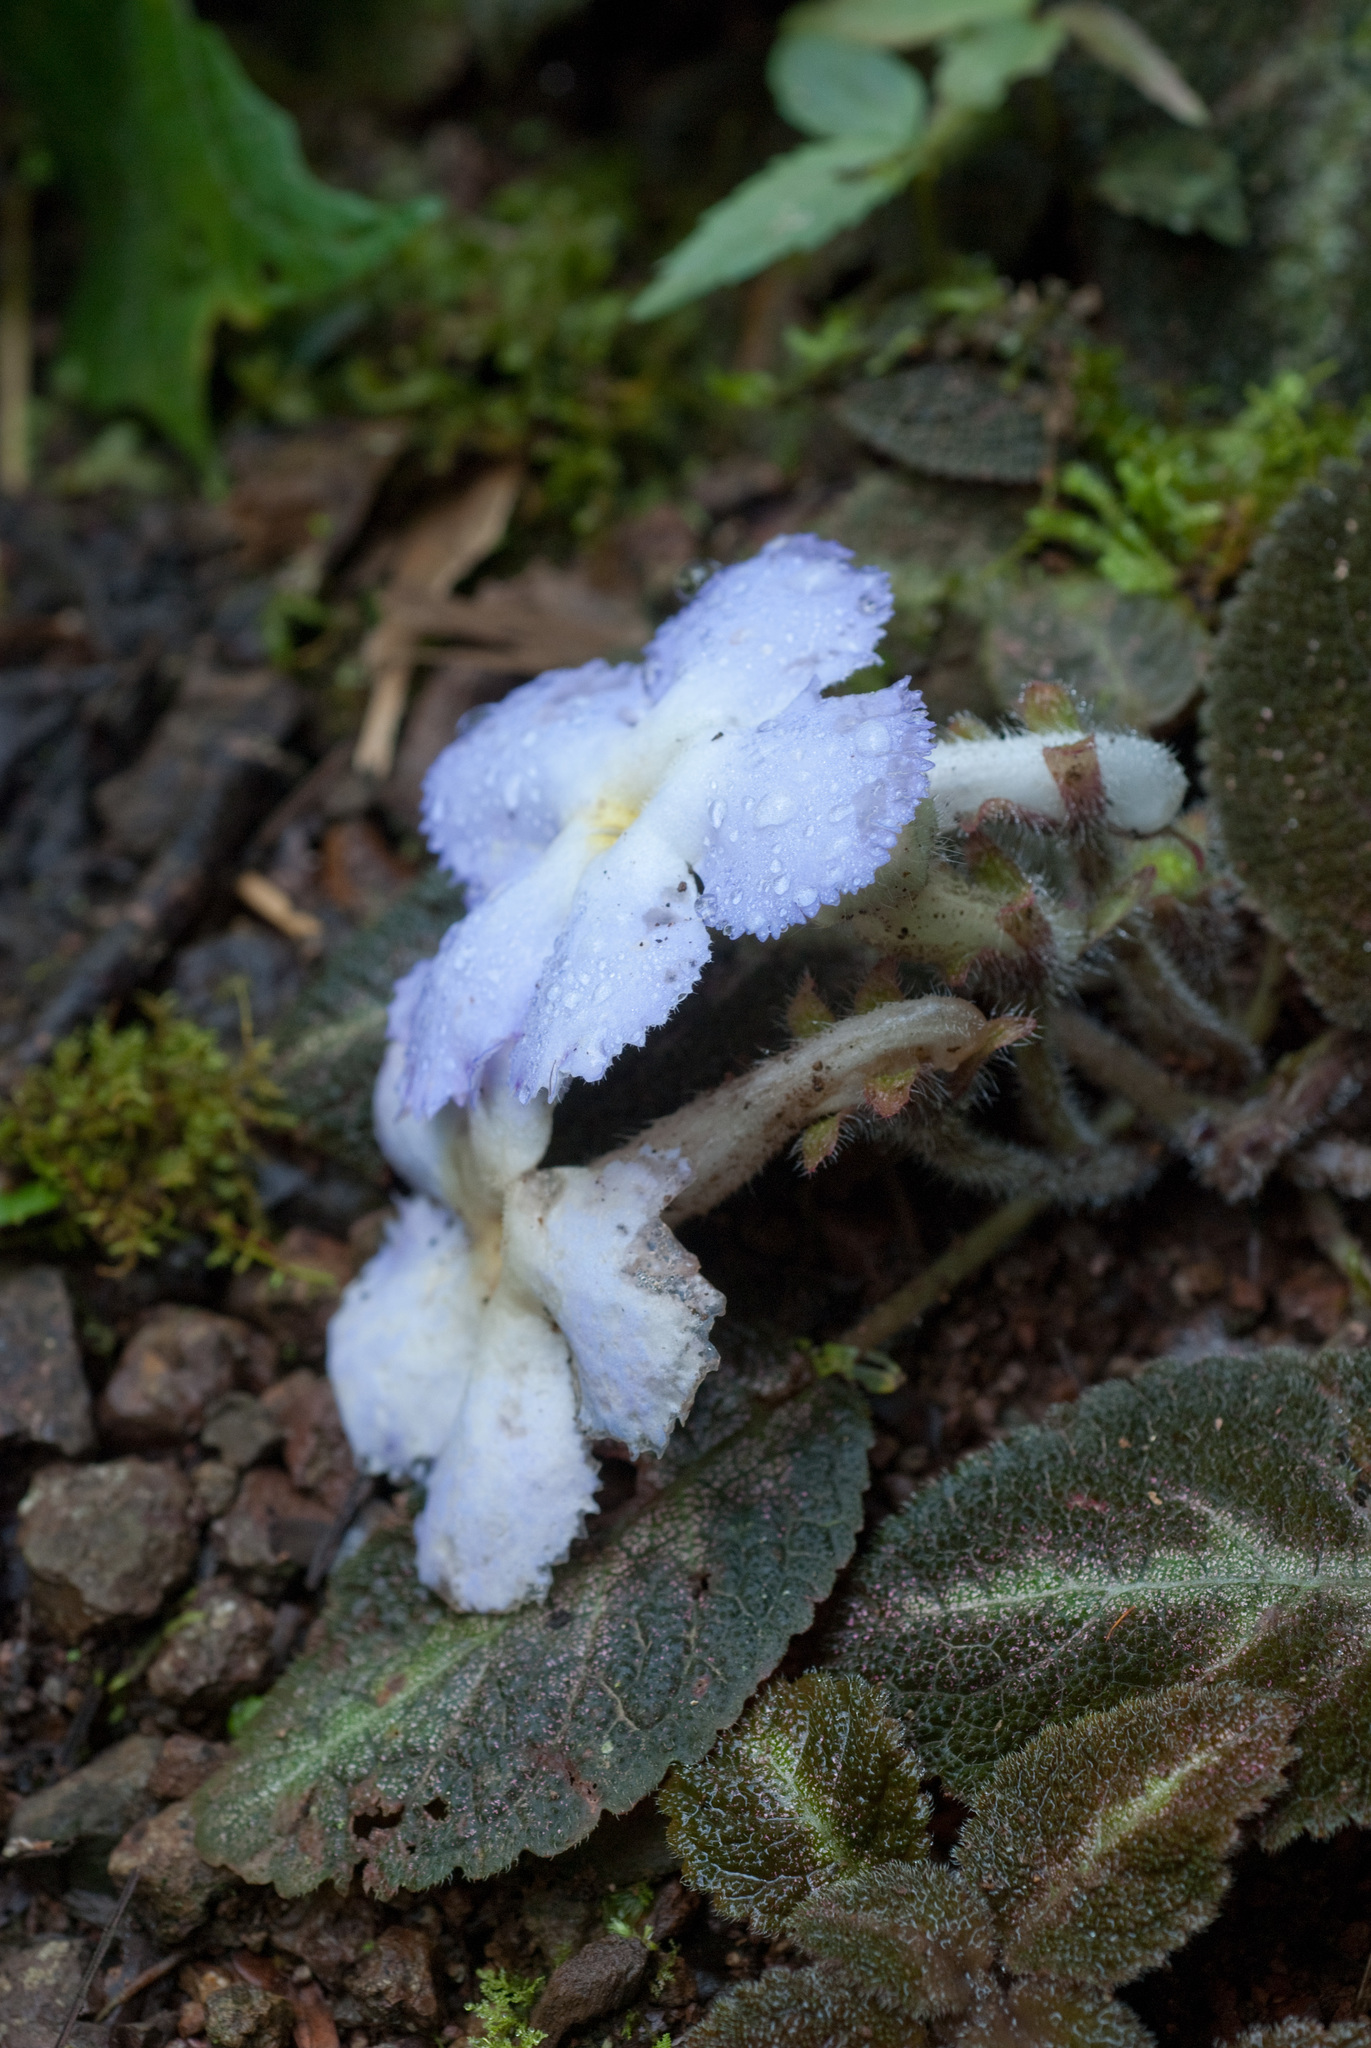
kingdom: Plantae
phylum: Tracheophyta
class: Magnoliopsida
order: Lamiales
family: Gesneriaceae
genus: Episcia
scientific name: Episcia lilacina
